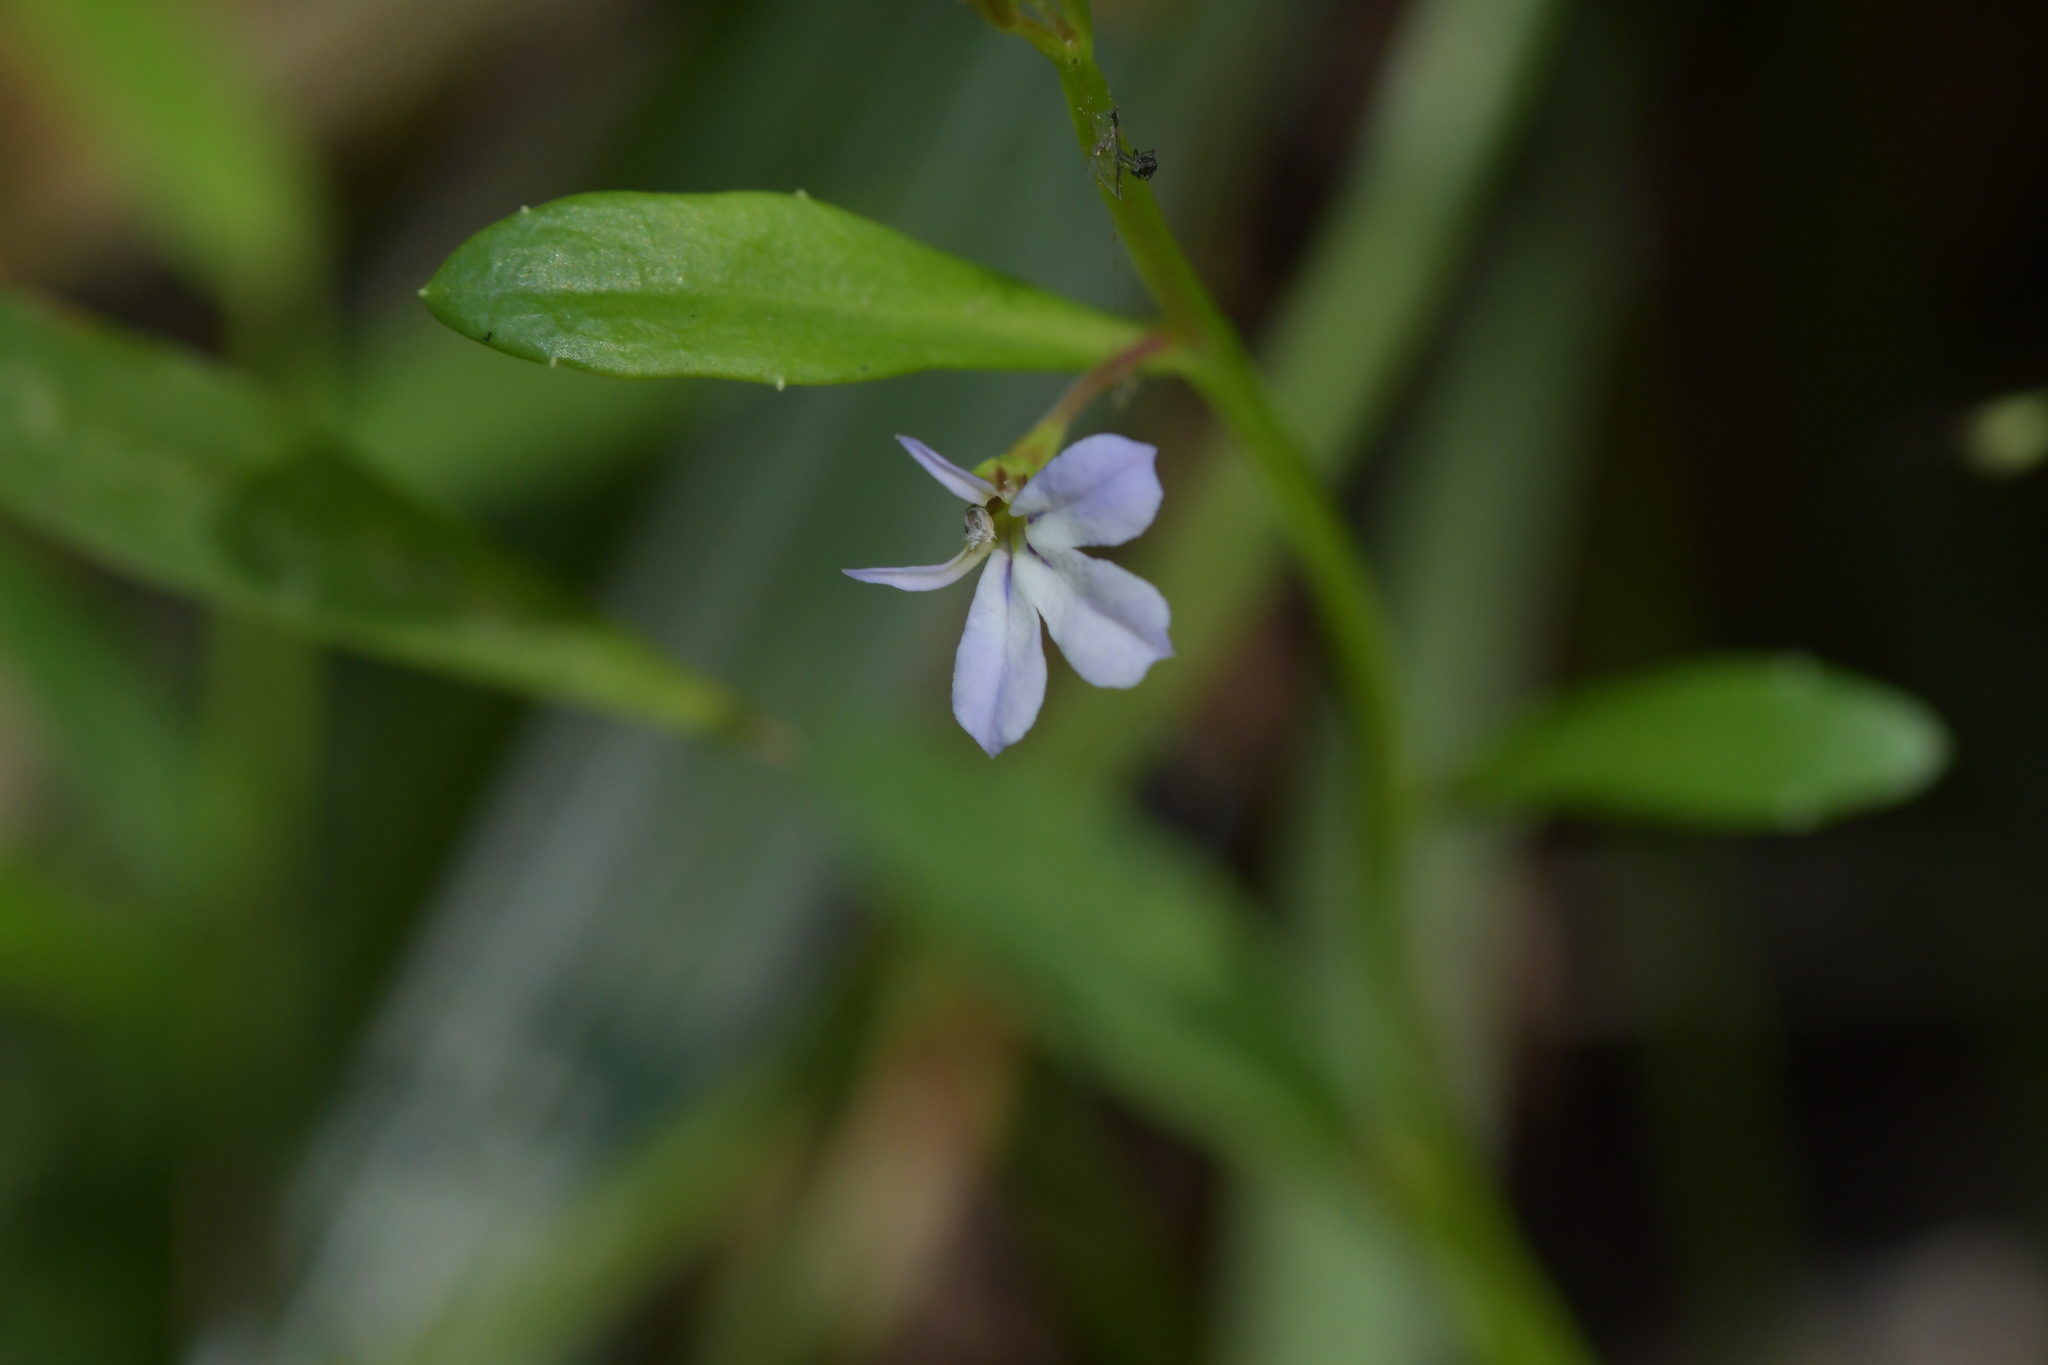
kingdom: Plantae
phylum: Tracheophyta
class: Magnoliopsida
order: Asterales
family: Campanulaceae
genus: Lobelia
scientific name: Lobelia anceps
